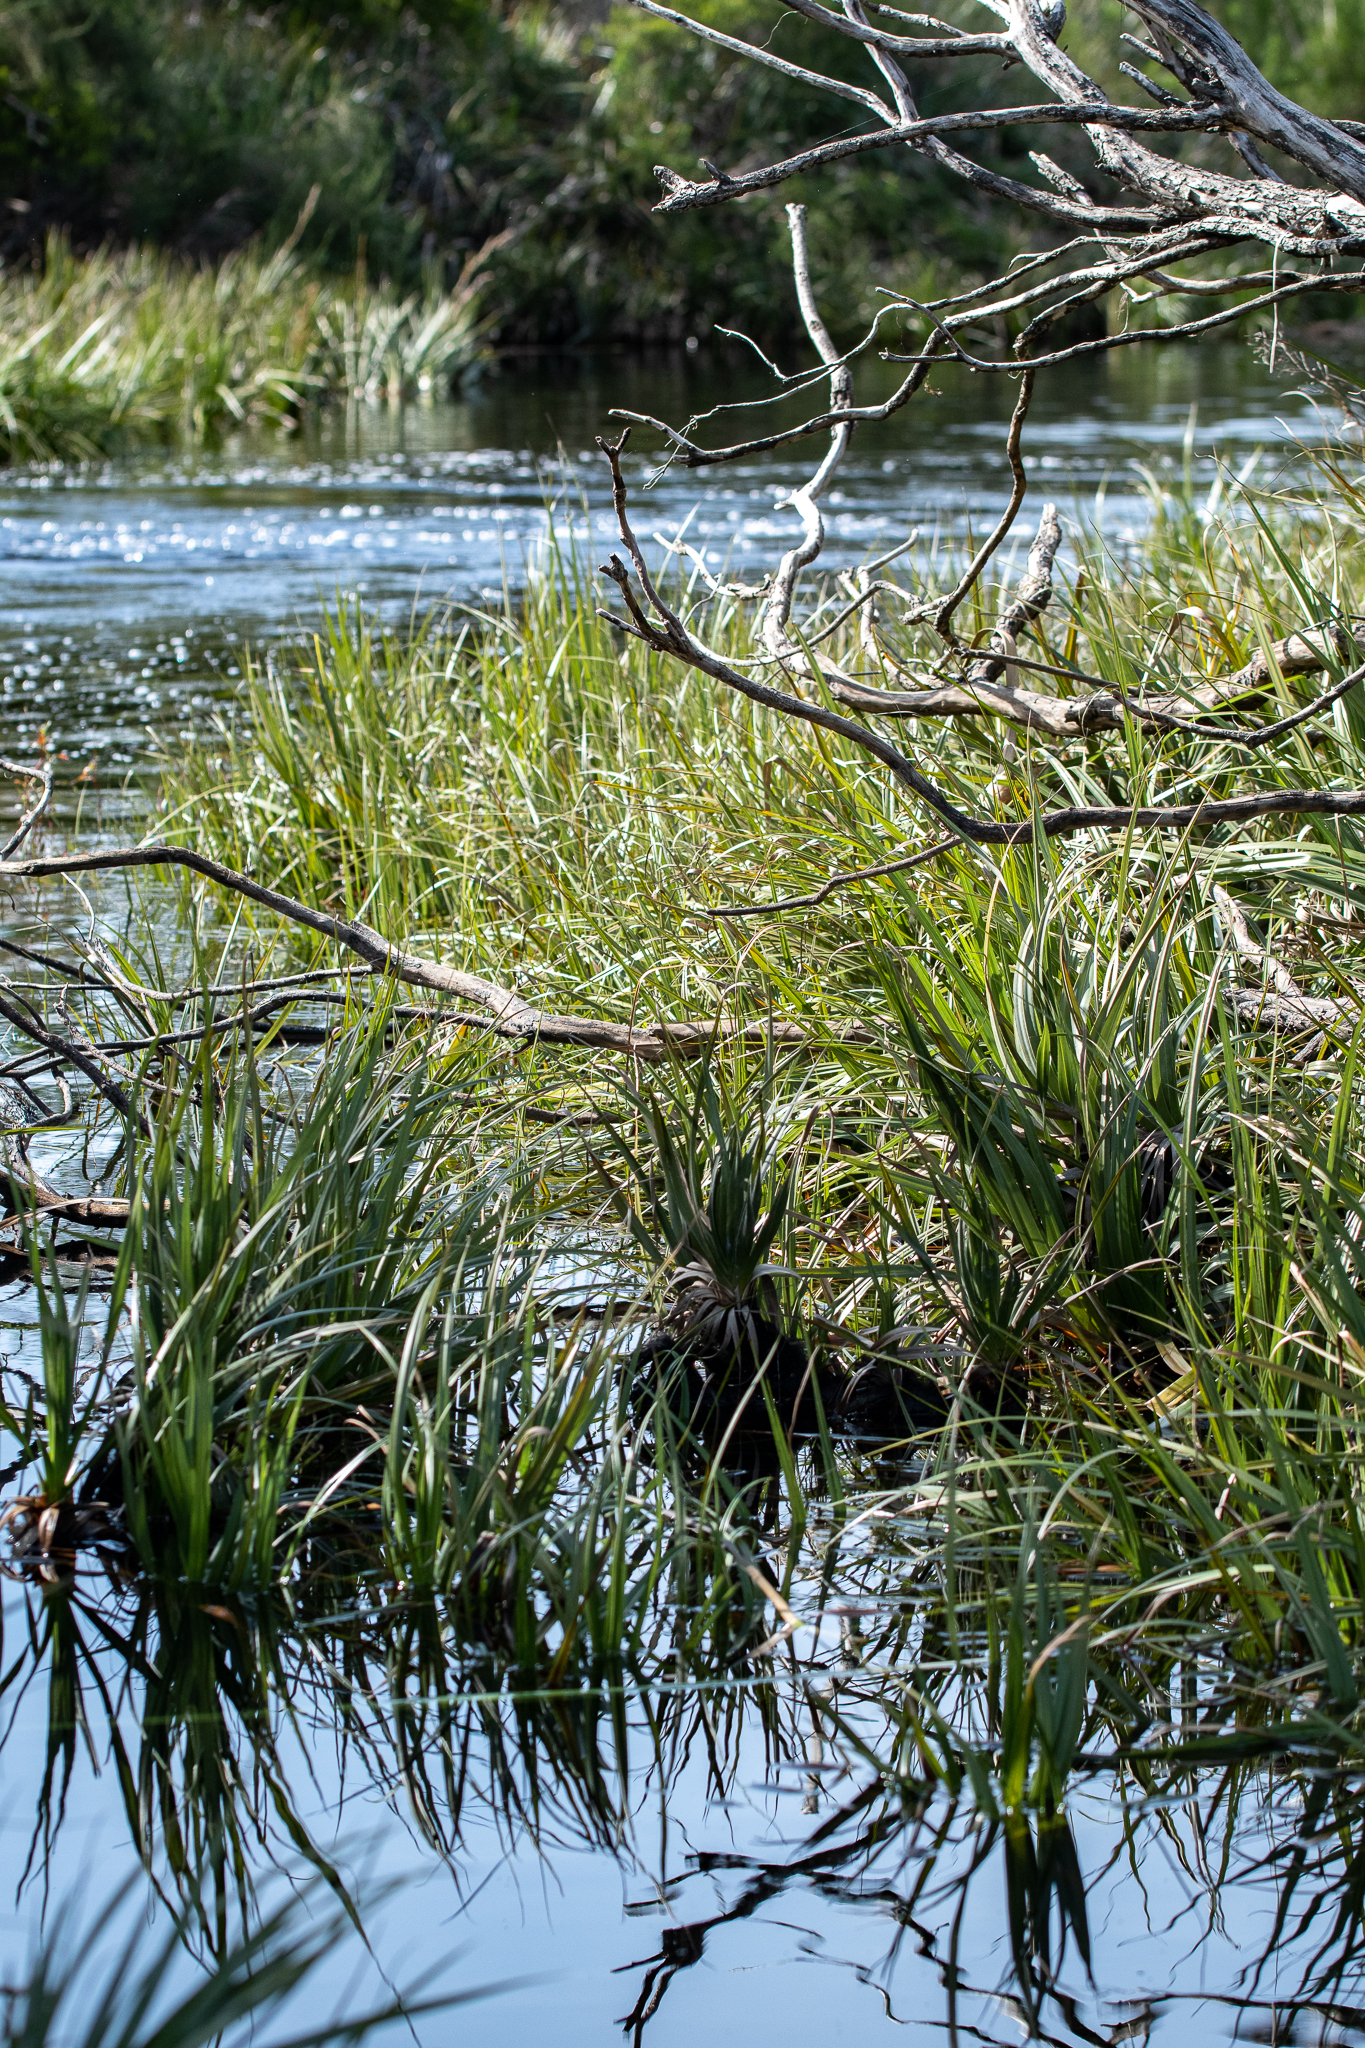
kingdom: Plantae
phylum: Tracheophyta
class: Liliopsida
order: Poales
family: Thurniaceae
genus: Prionium
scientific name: Prionium serratum
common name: Palmiet
